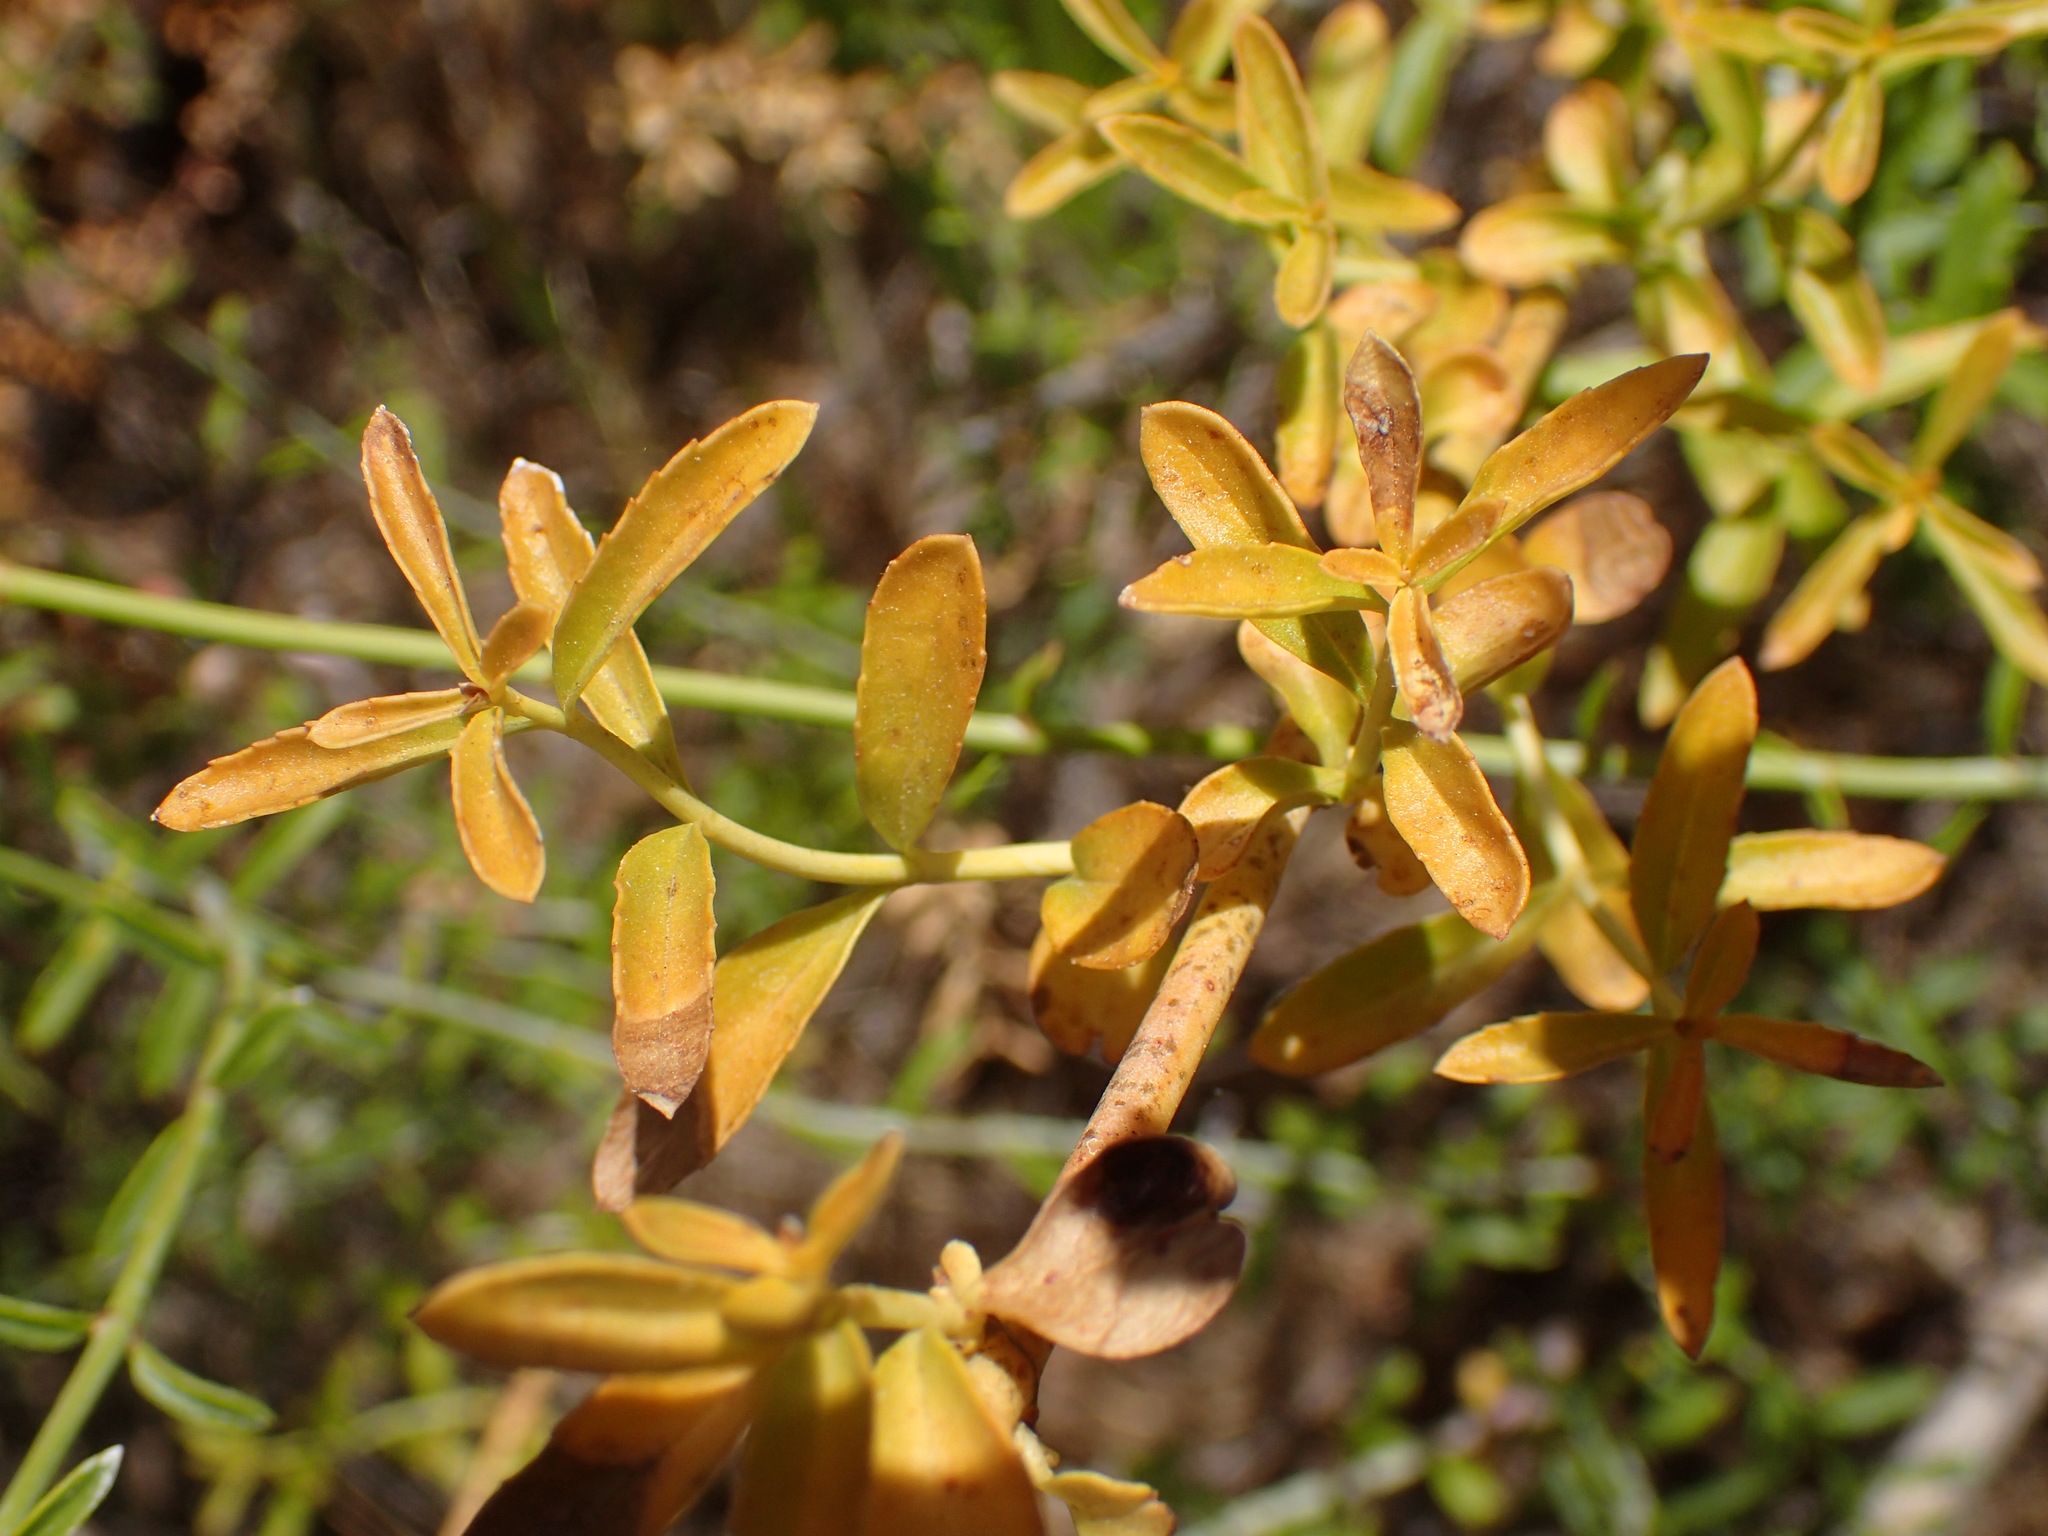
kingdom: Plantae
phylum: Tracheophyta
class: Magnoliopsida
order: Lamiales
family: Plantaginaceae
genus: Keckiella
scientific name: Keckiella breviflora
